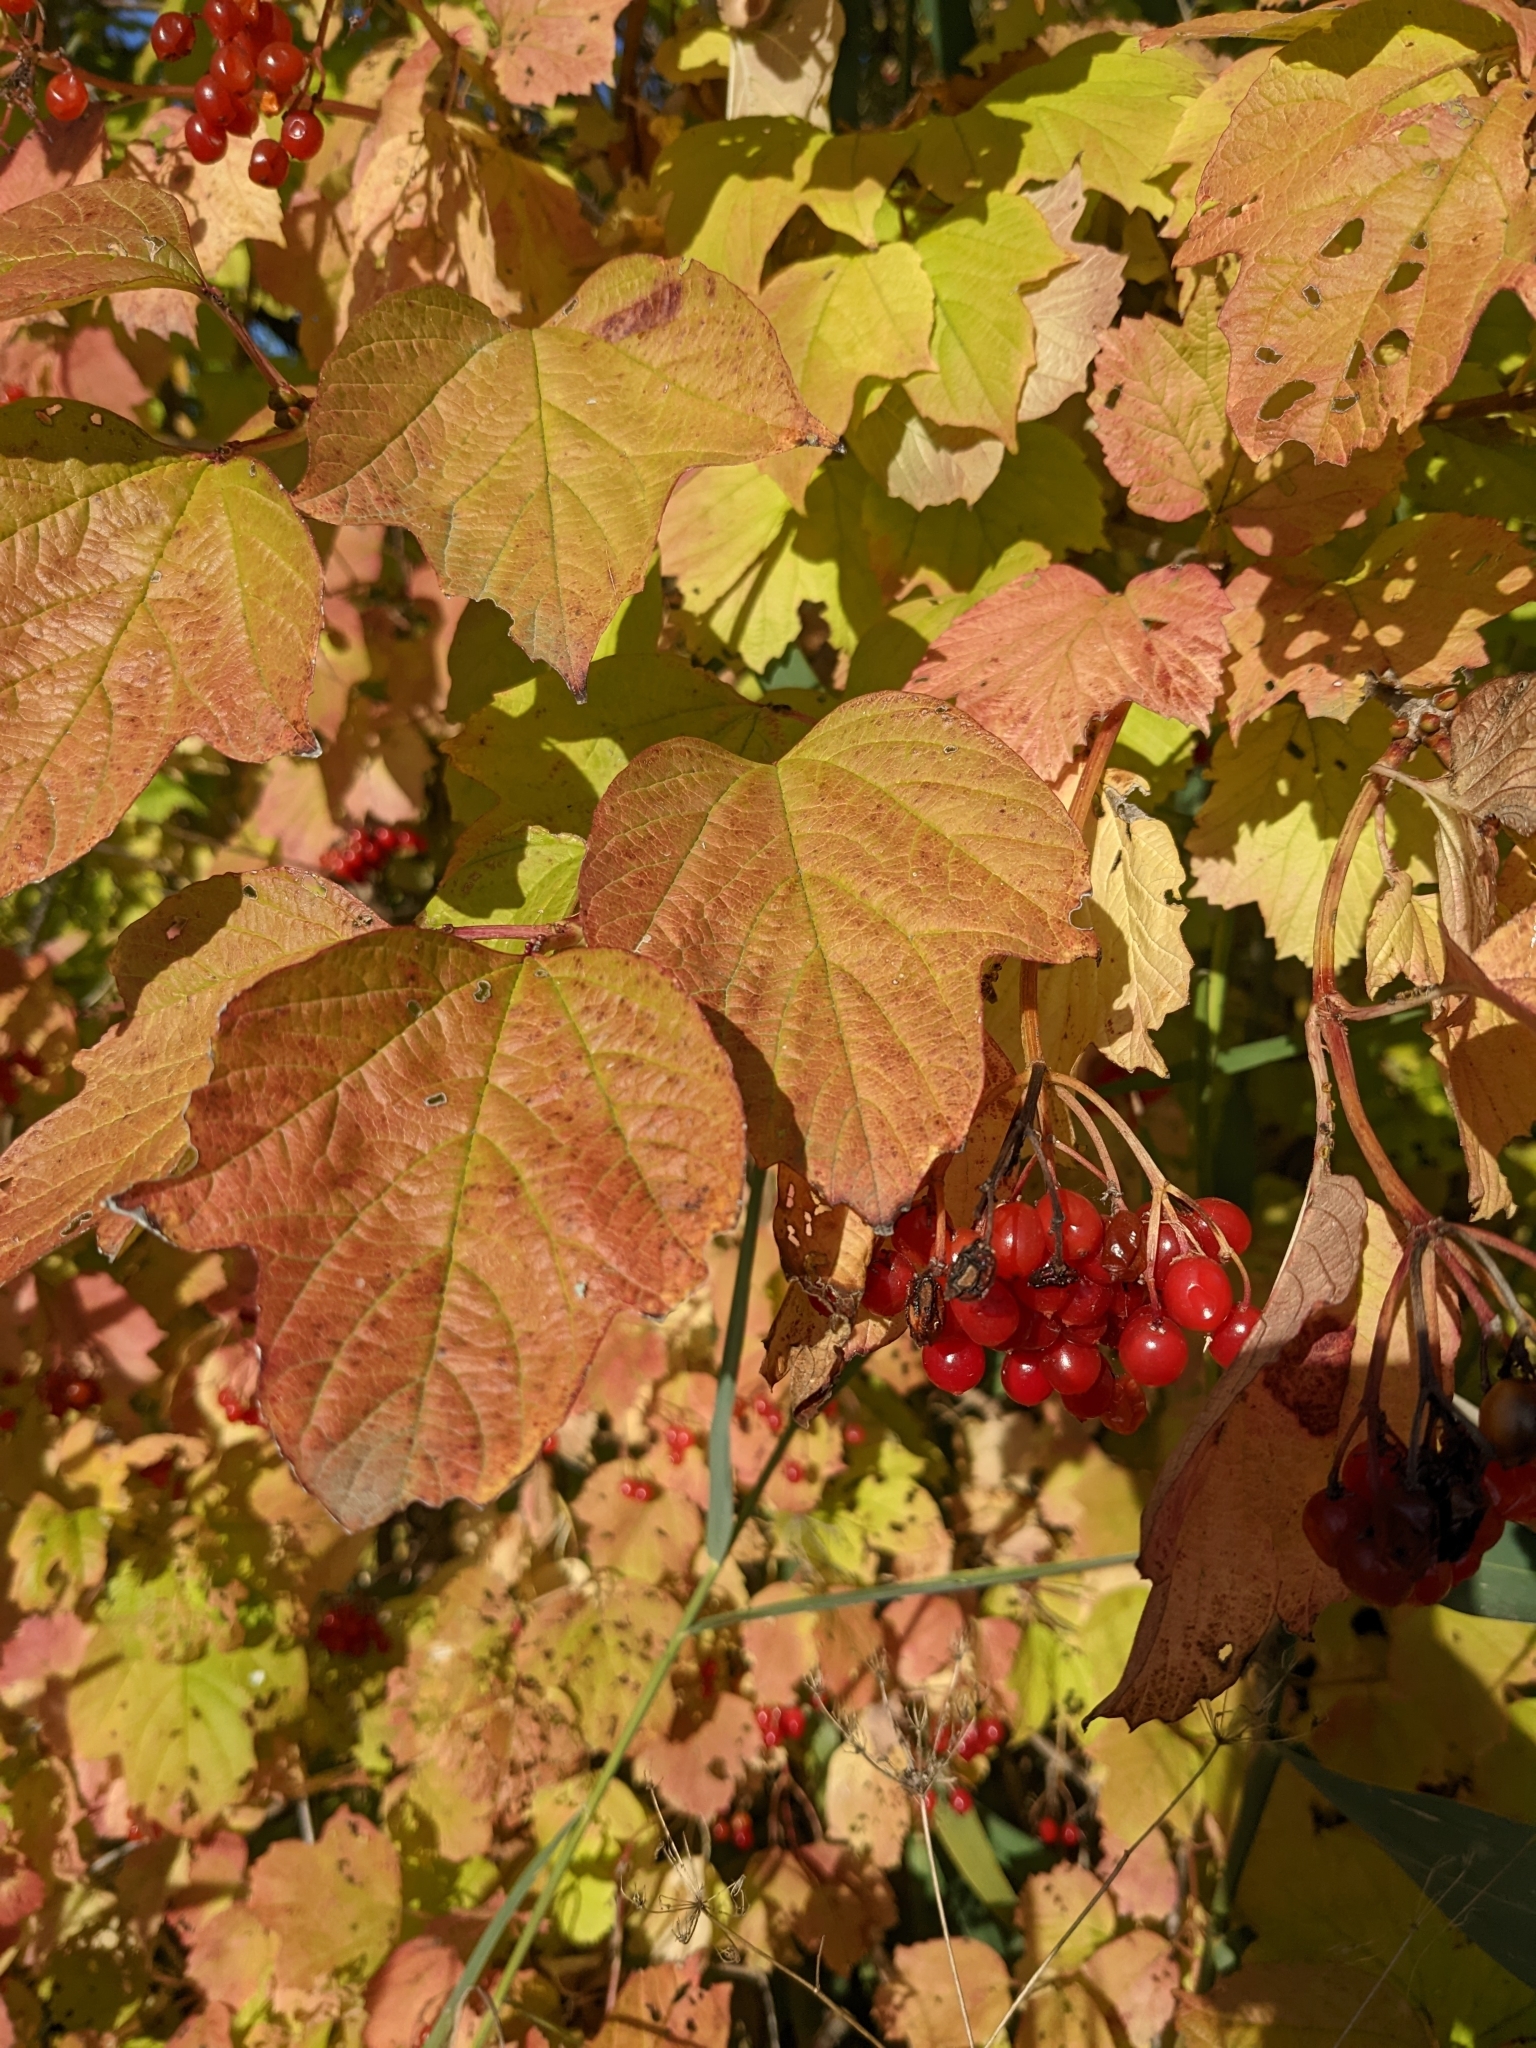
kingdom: Plantae
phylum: Tracheophyta
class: Magnoliopsida
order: Dipsacales
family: Viburnaceae
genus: Viburnum
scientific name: Viburnum opulus
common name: Guelder-rose
